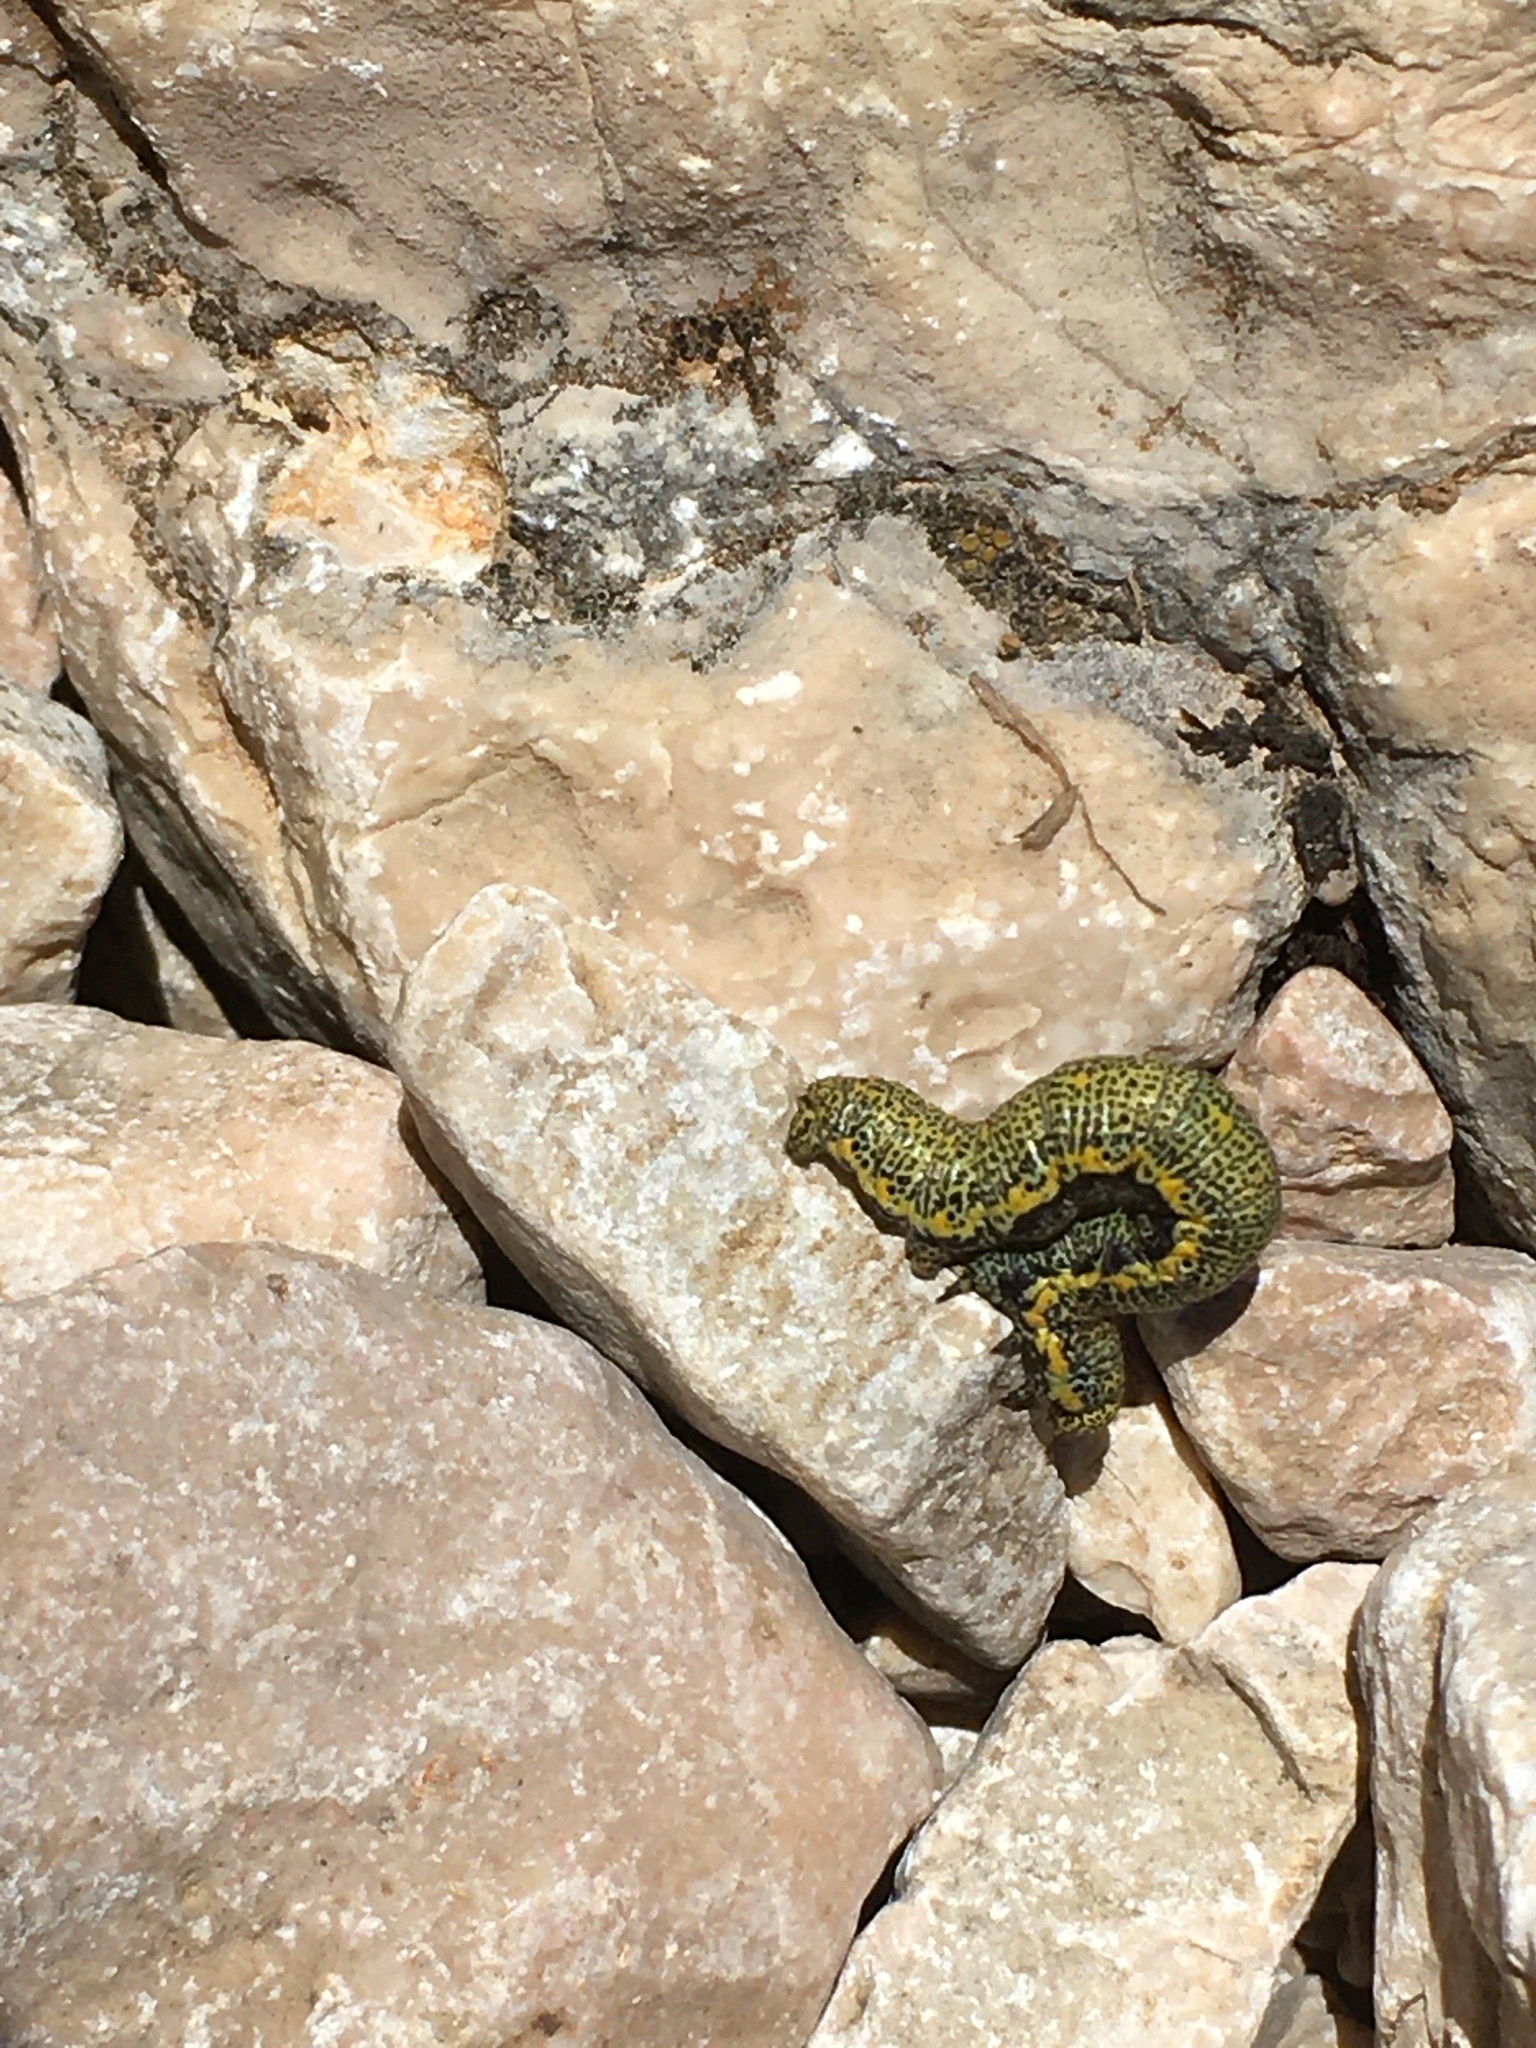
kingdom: Animalia
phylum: Arthropoda
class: Insecta
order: Lepidoptera
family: Geometridae
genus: Lycia
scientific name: Lycia alpina
